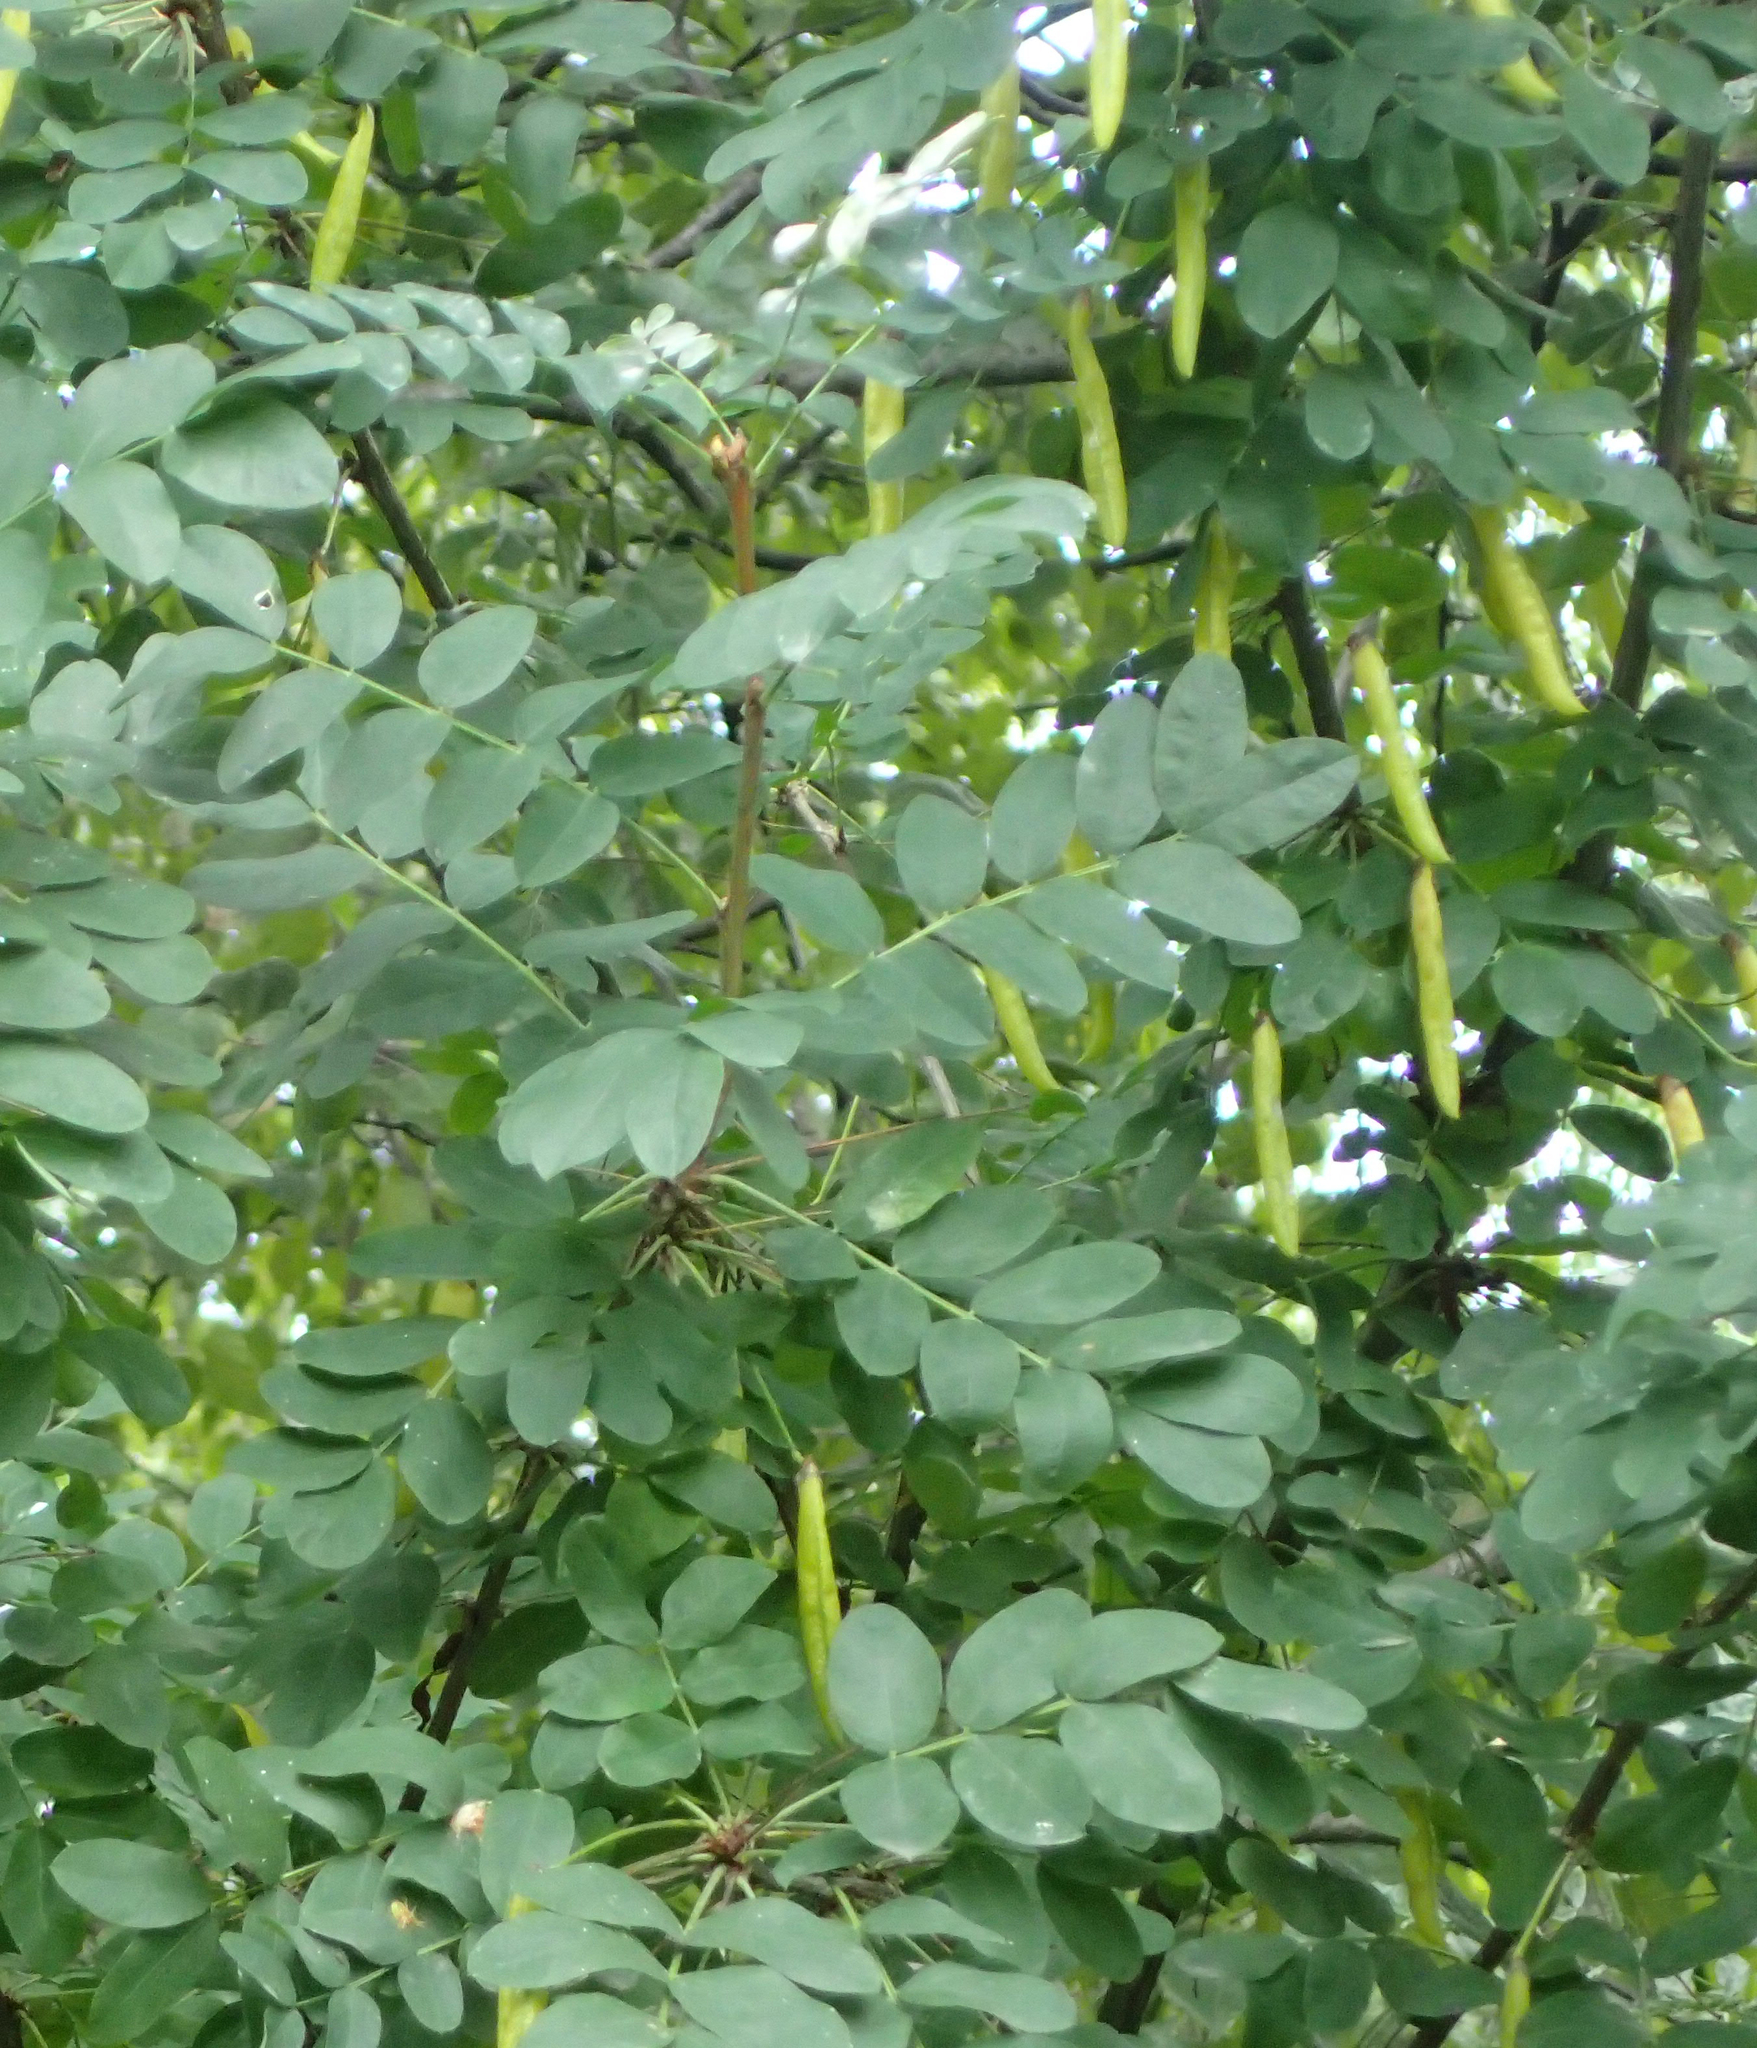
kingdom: Plantae
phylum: Tracheophyta
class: Magnoliopsida
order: Fabales
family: Fabaceae
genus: Caragana
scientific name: Caragana arborescens
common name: Siberian peashrub
